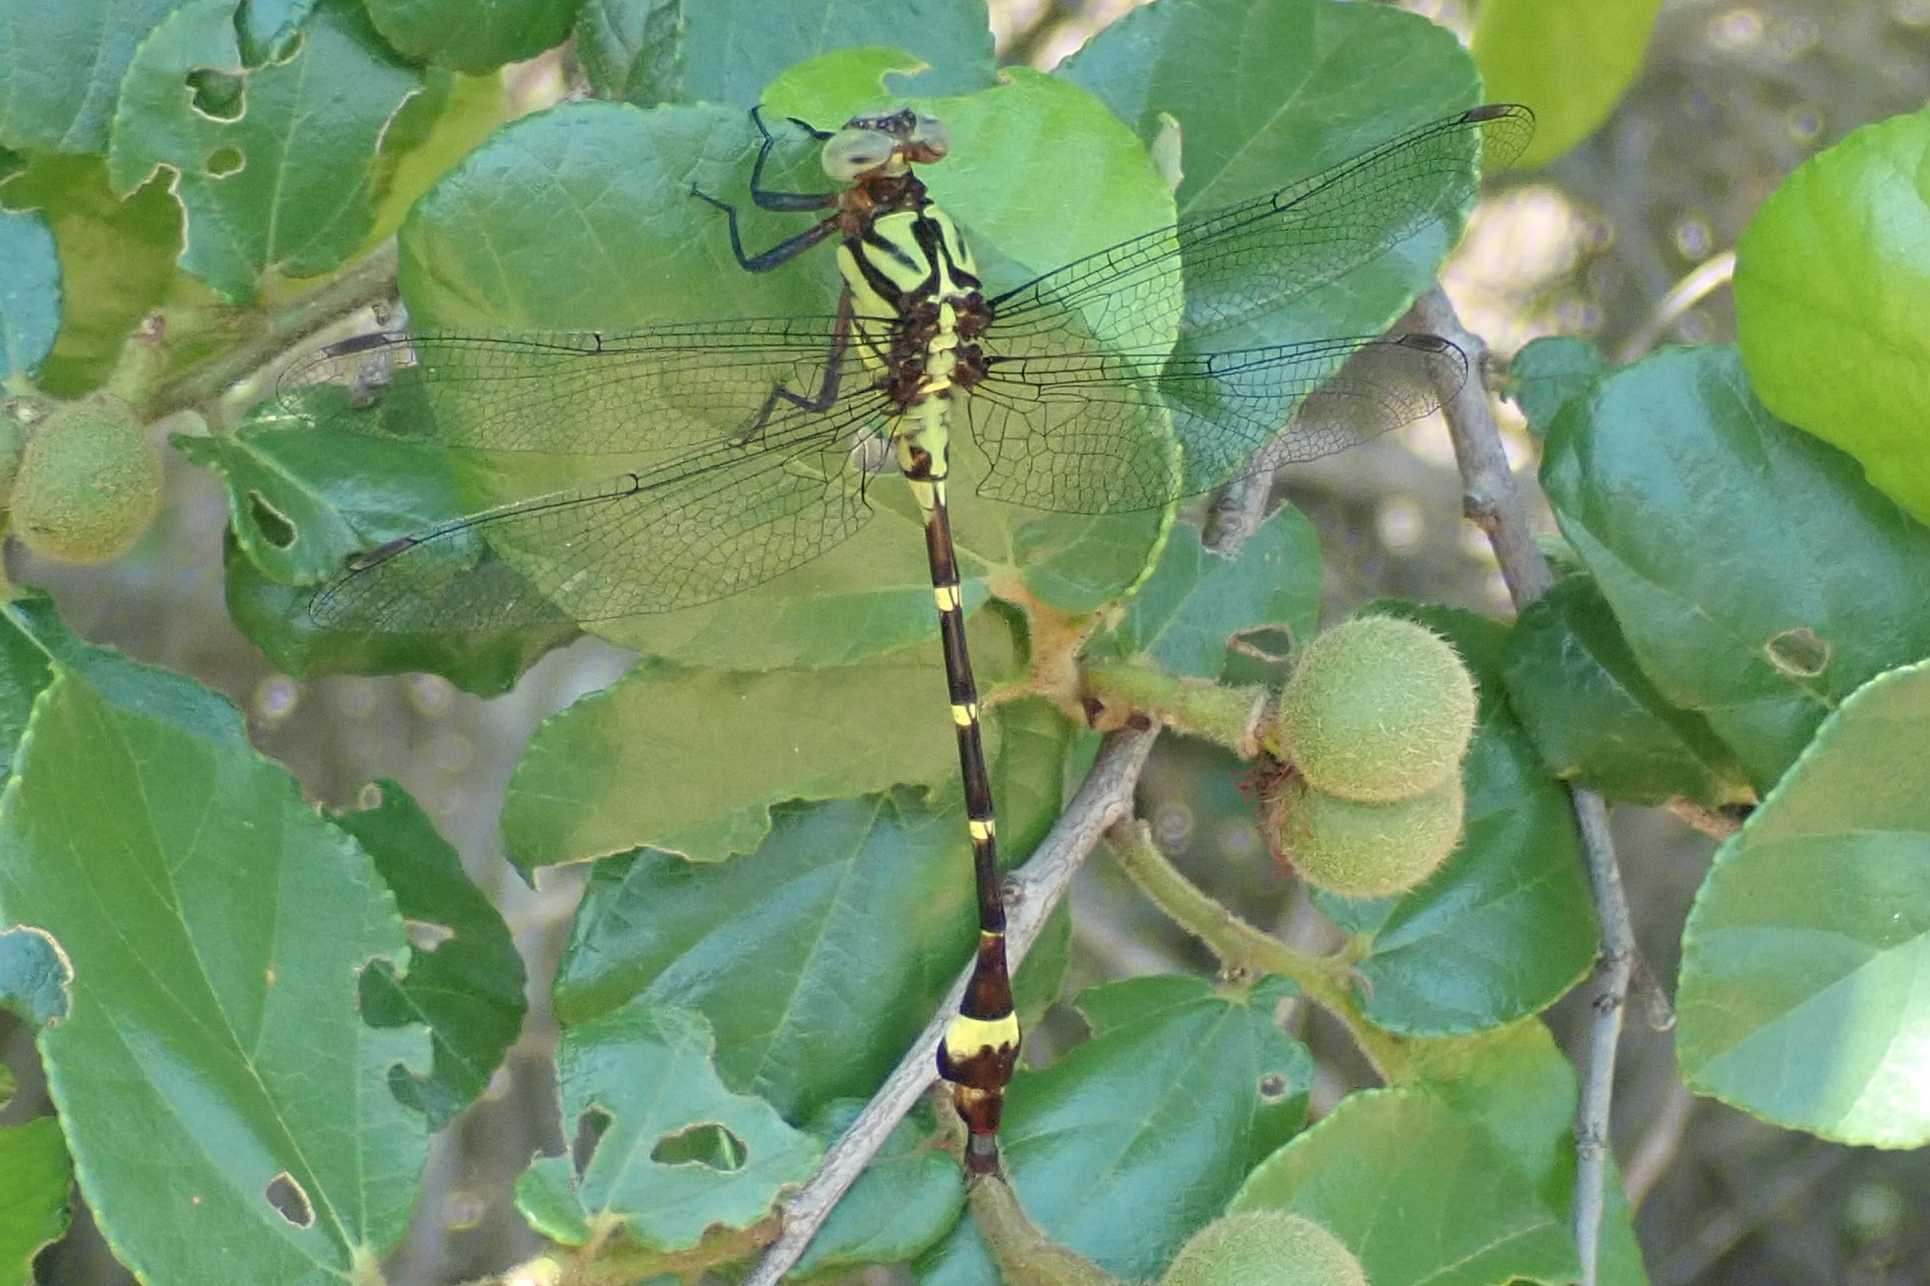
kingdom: Animalia
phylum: Arthropoda
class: Insecta
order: Odonata
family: Gomphidae
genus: Neurogomphus
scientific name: Neurogomphus zambeziensis
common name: Zambezi siphontail
